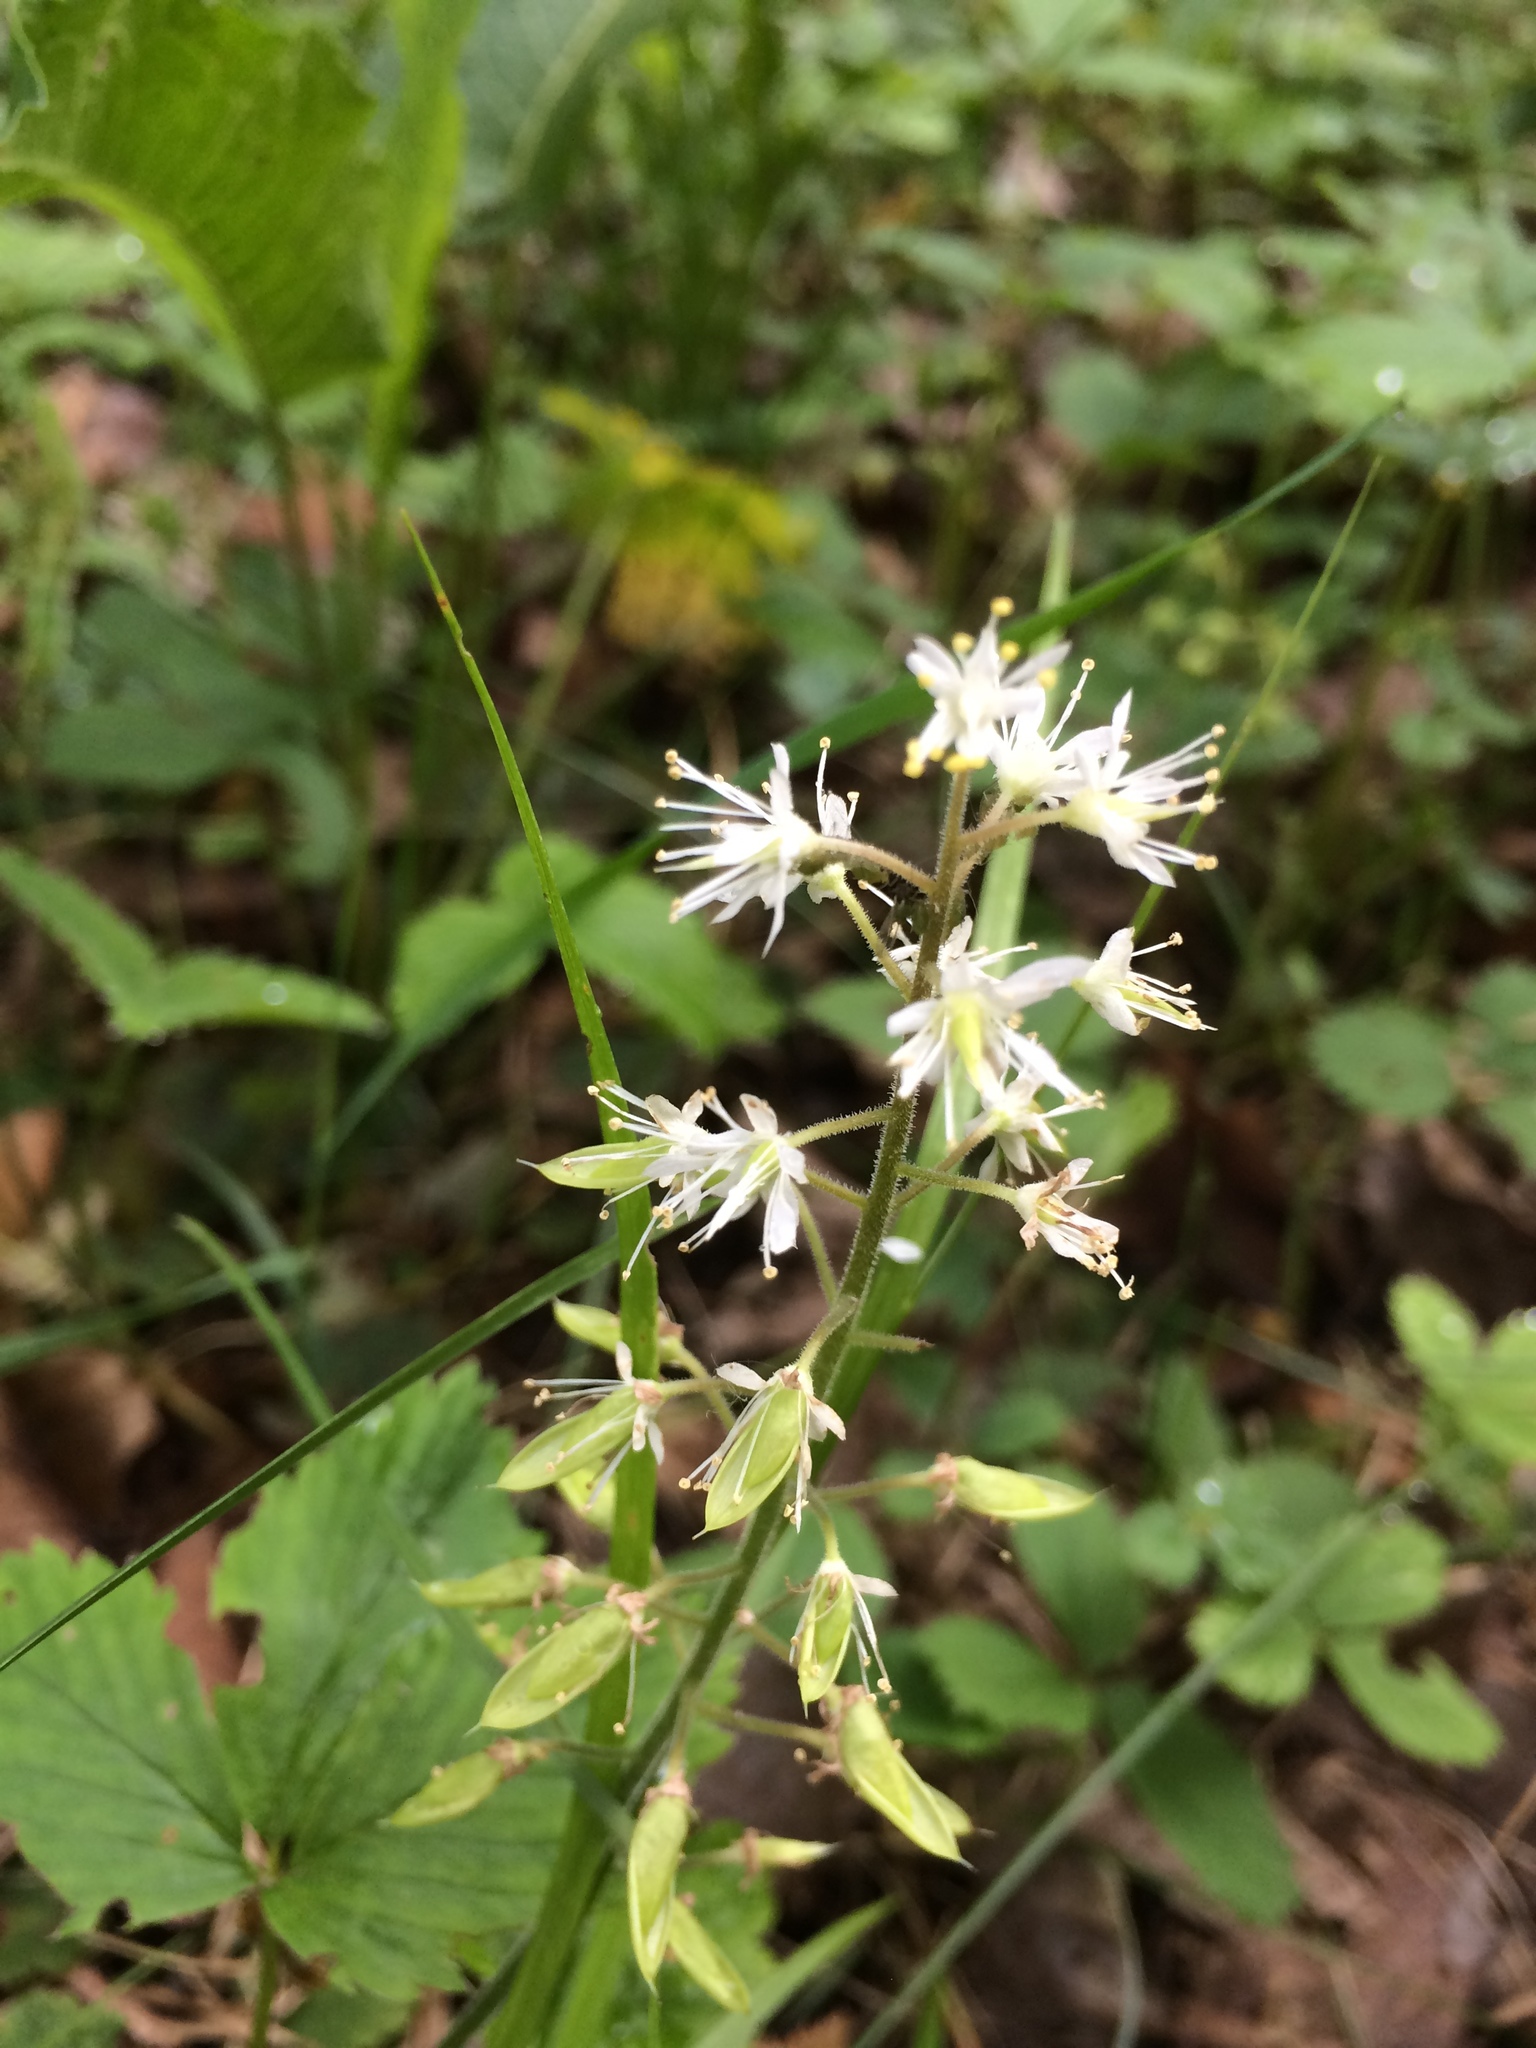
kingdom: Plantae
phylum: Tracheophyta
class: Magnoliopsida
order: Saxifragales
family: Saxifragaceae
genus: Tiarella
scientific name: Tiarella stolonifera
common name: Stoloniferous foamflower
